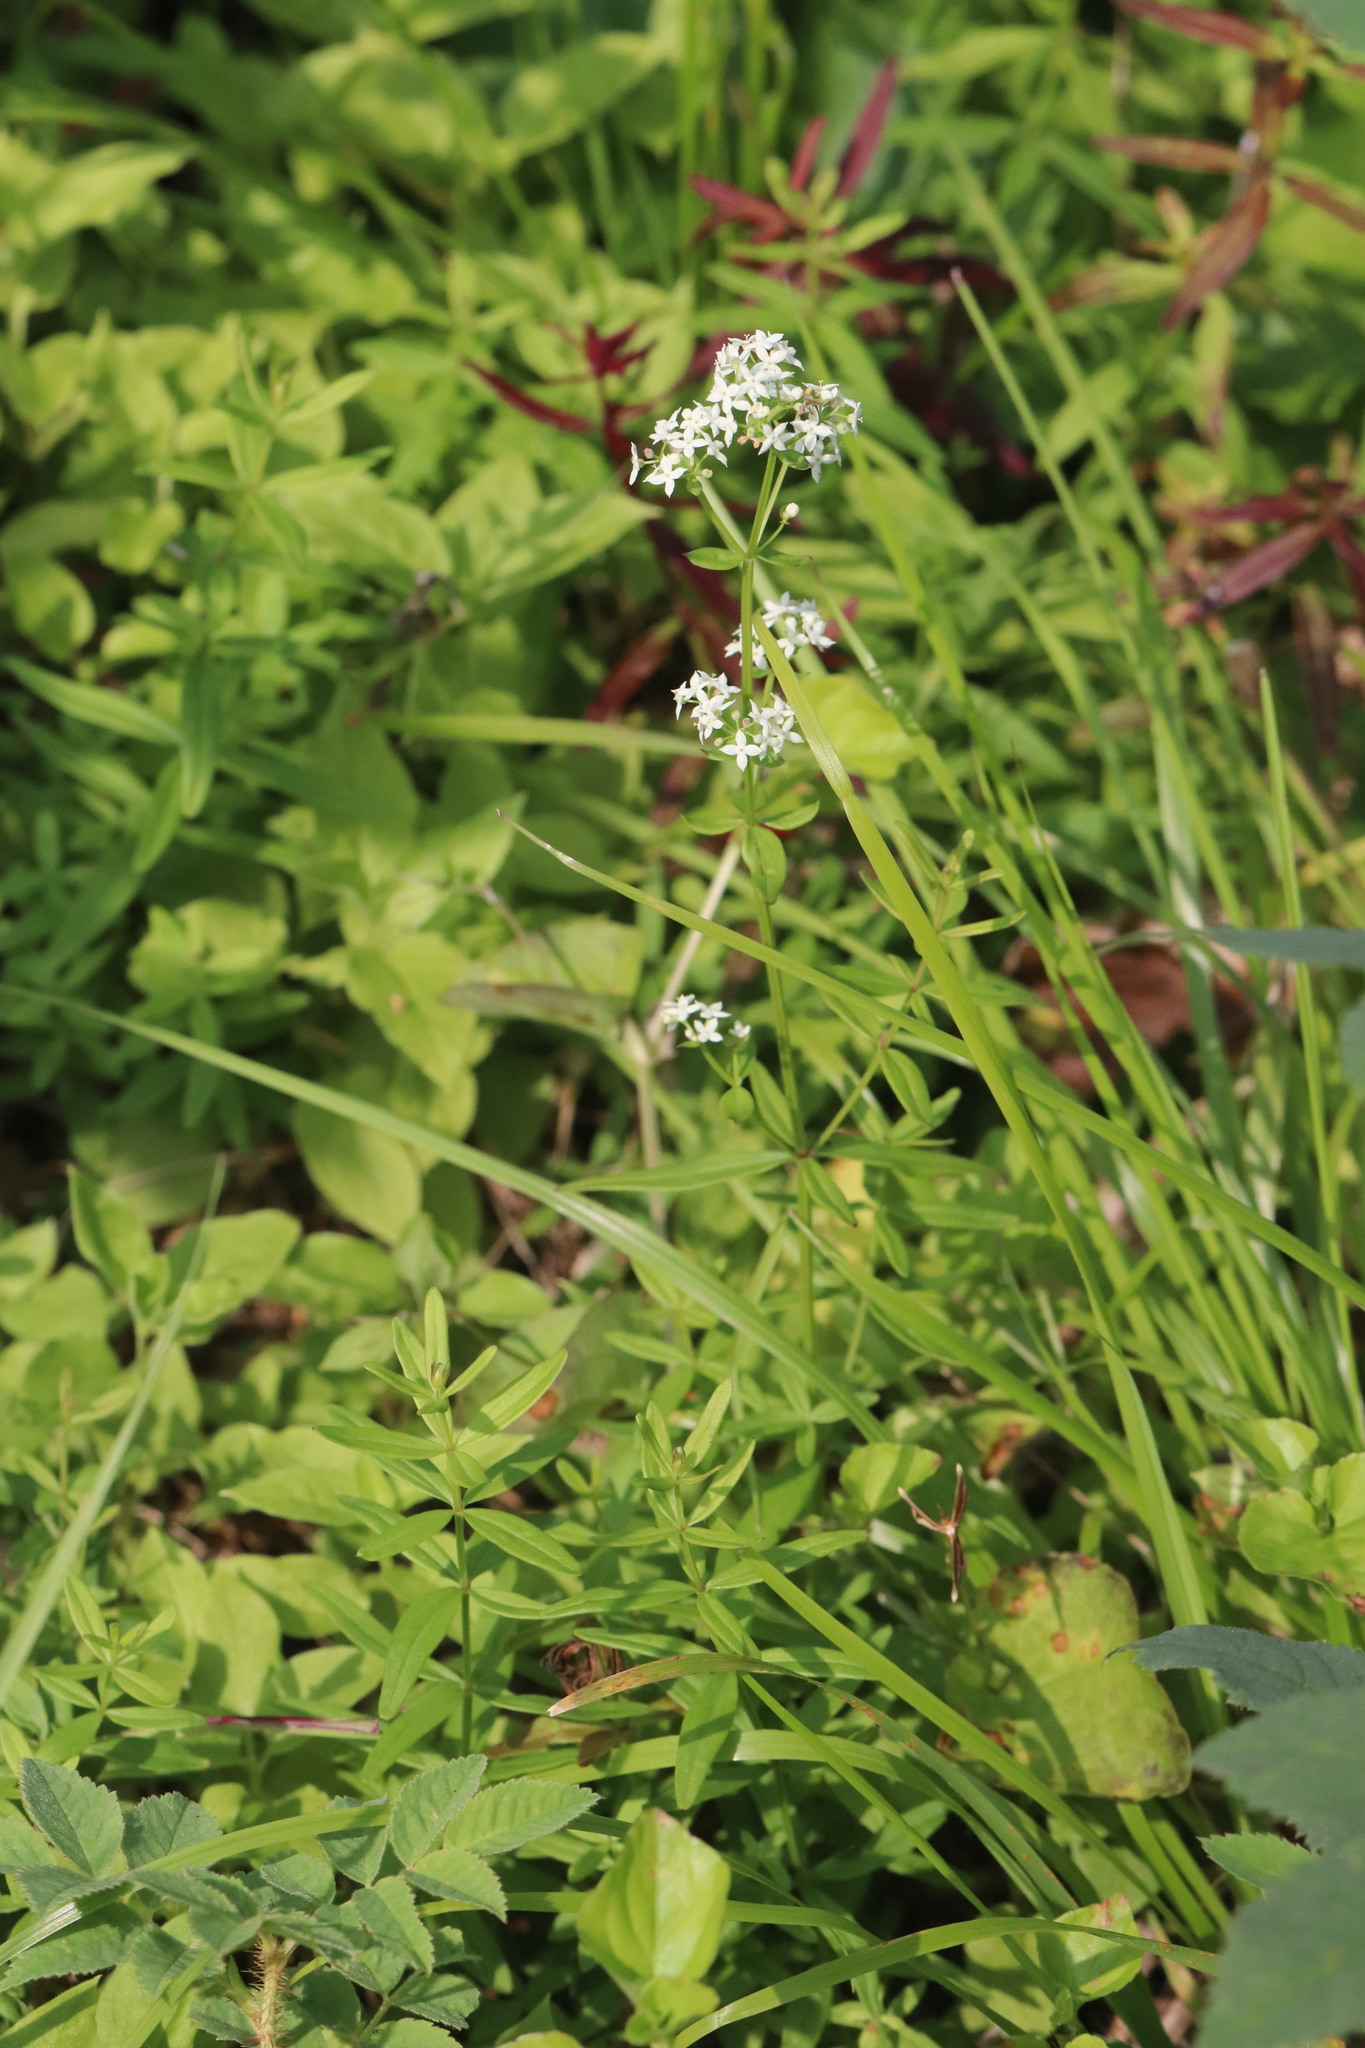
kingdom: Plantae
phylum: Tracheophyta
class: Magnoliopsida
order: Gentianales
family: Rubiaceae
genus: Galium
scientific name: Galium boreale
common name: Northern bedstraw
